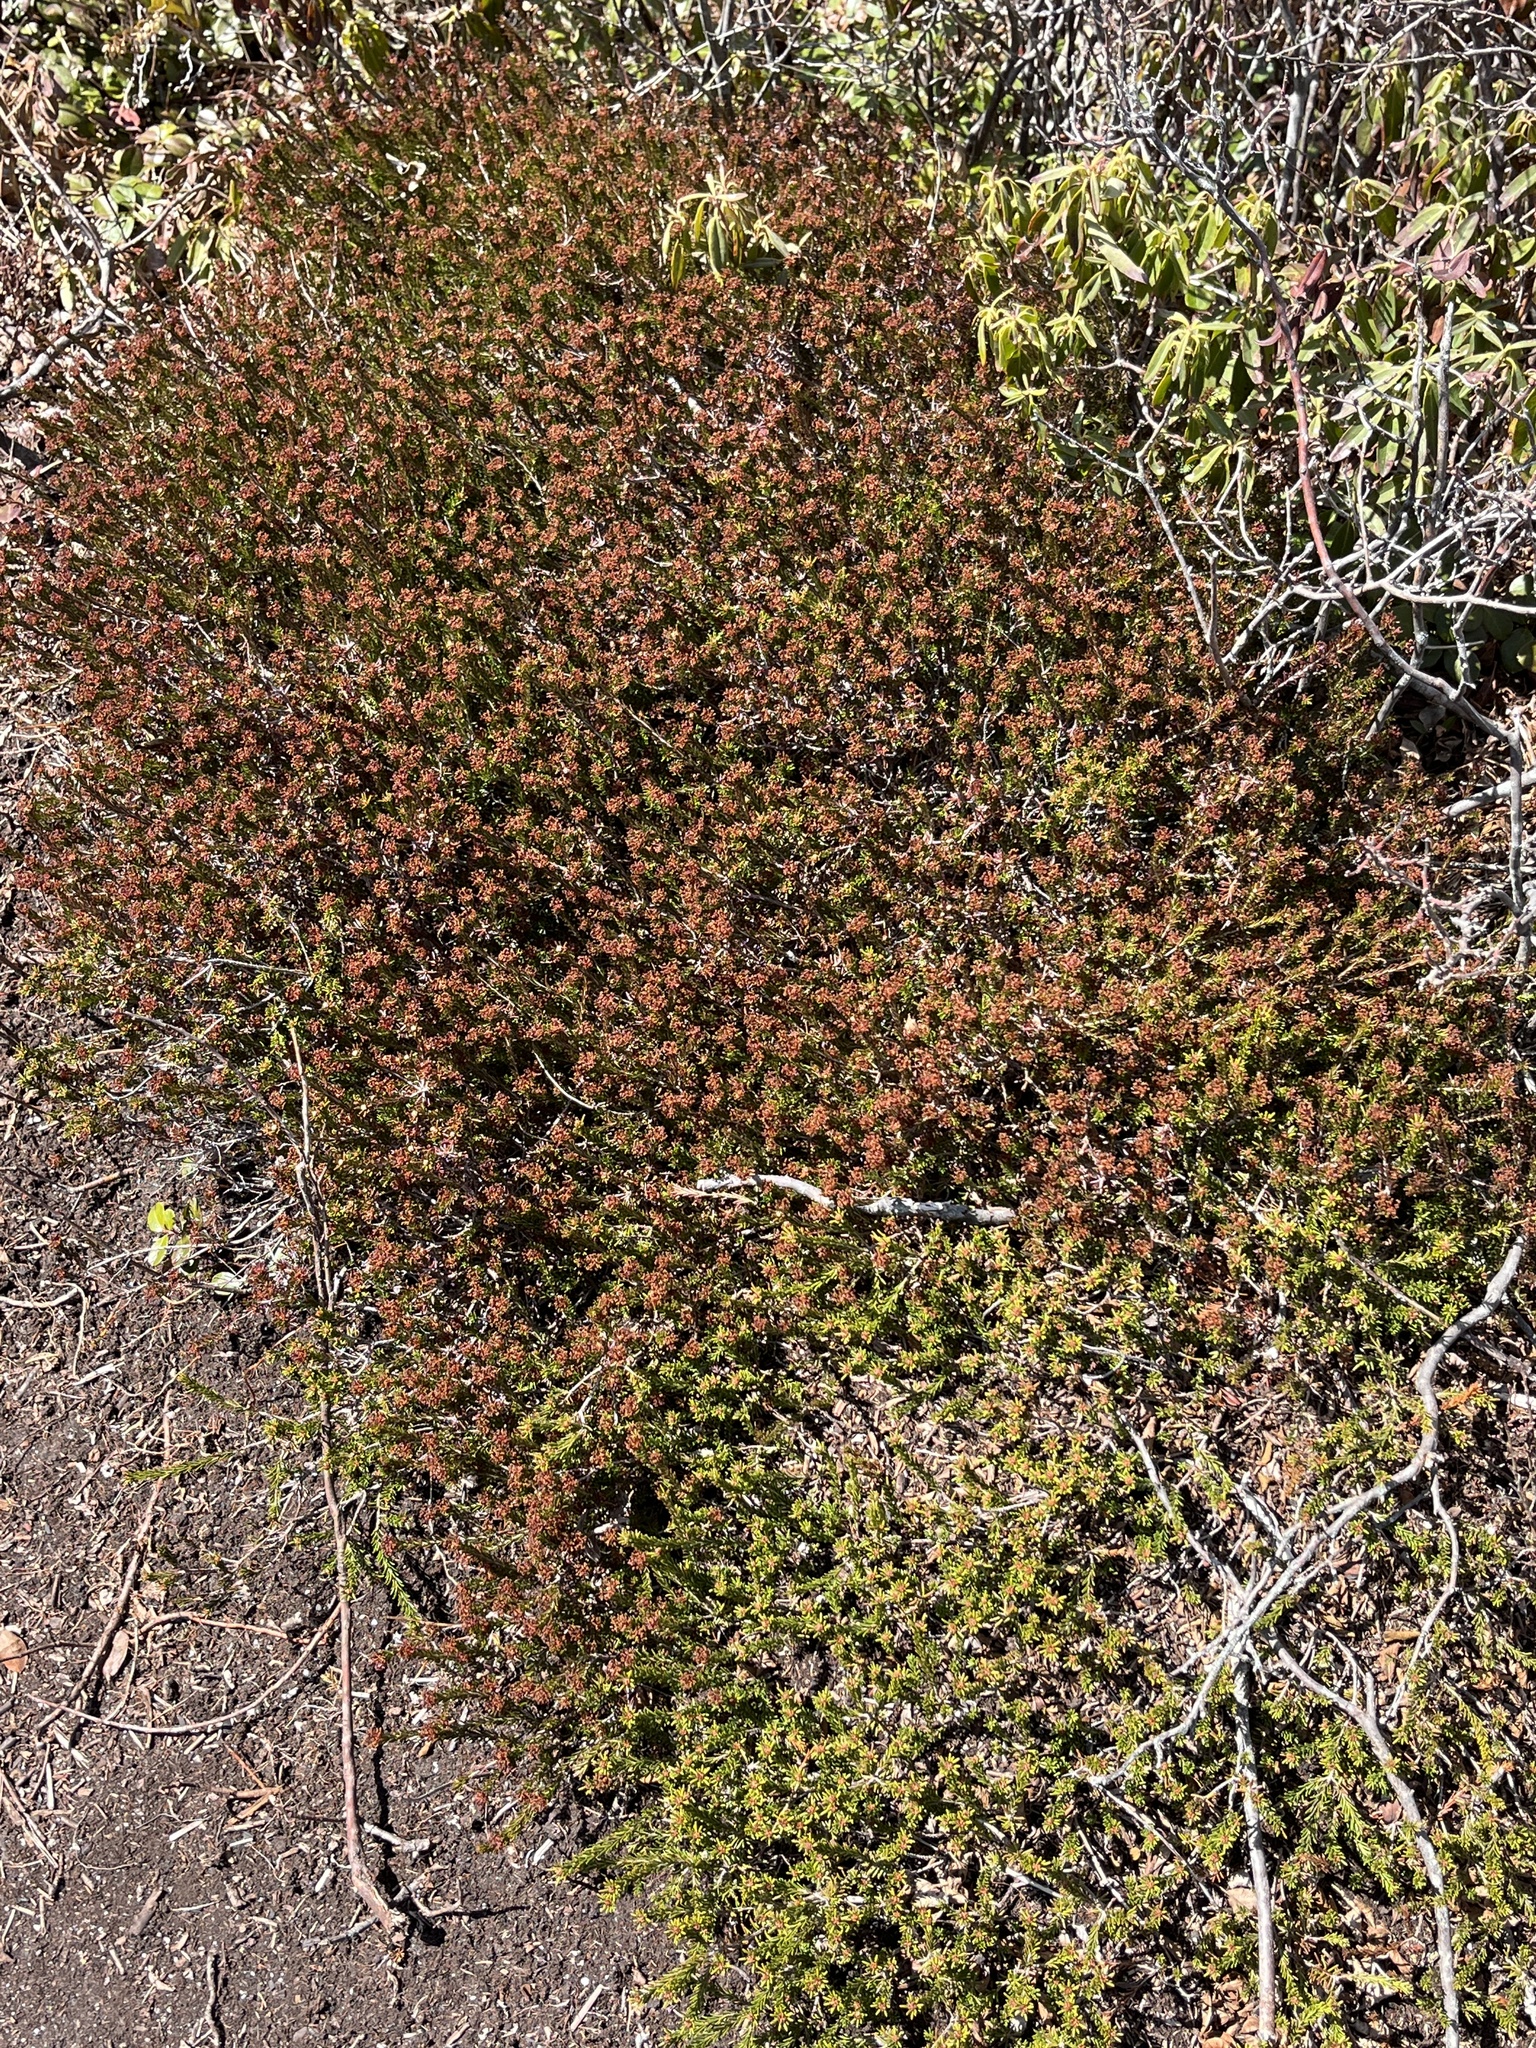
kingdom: Plantae
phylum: Tracheophyta
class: Magnoliopsida
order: Ericales
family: Ericaceae
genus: Corema
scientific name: Corema conradii
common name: Broom-crowberry
